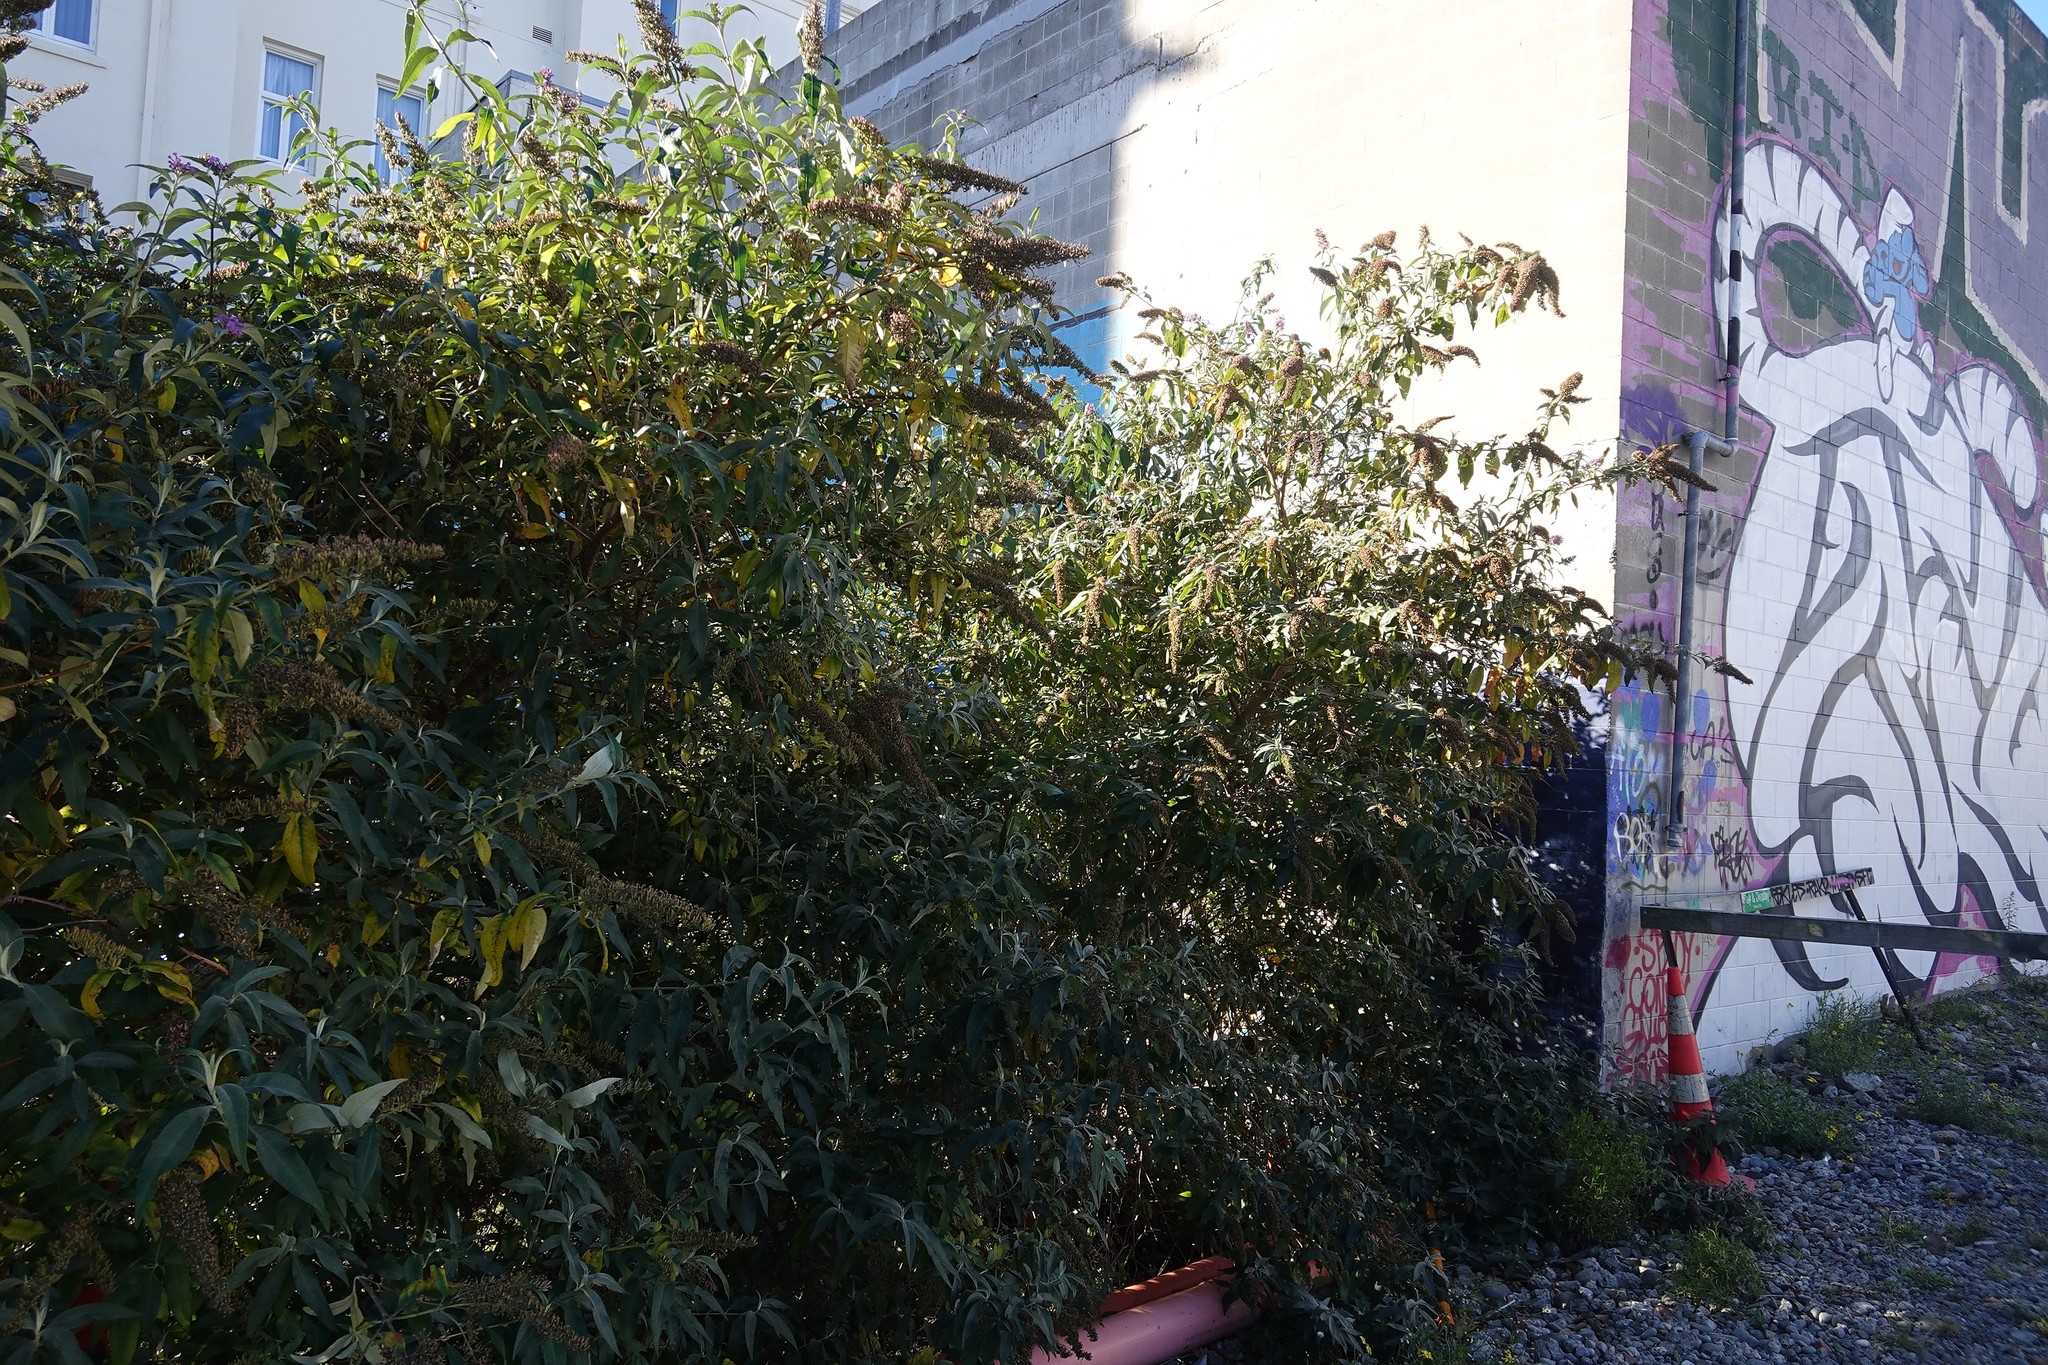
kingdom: Plantae
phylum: Tracheophyta
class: Magnoliopsida
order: Lamiales
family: Scrophulariaceae
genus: Buddleja
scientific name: Buddleja davidii
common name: Butterfly-bush
